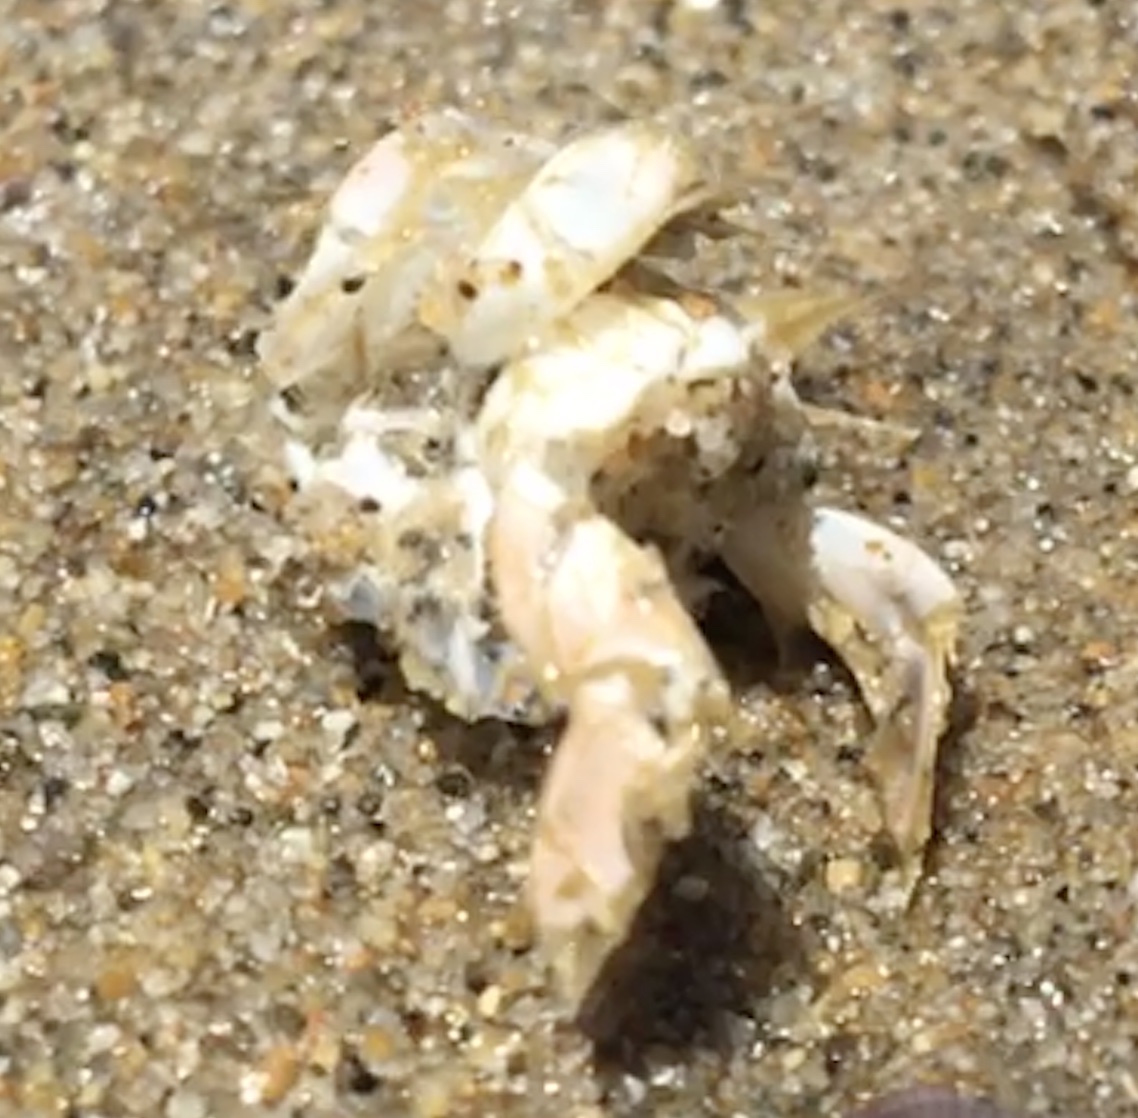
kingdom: Animalia
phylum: Arthropoda
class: Malacostraca
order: Decapoda
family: Hippidae
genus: Emerita
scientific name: Emerita analoga
